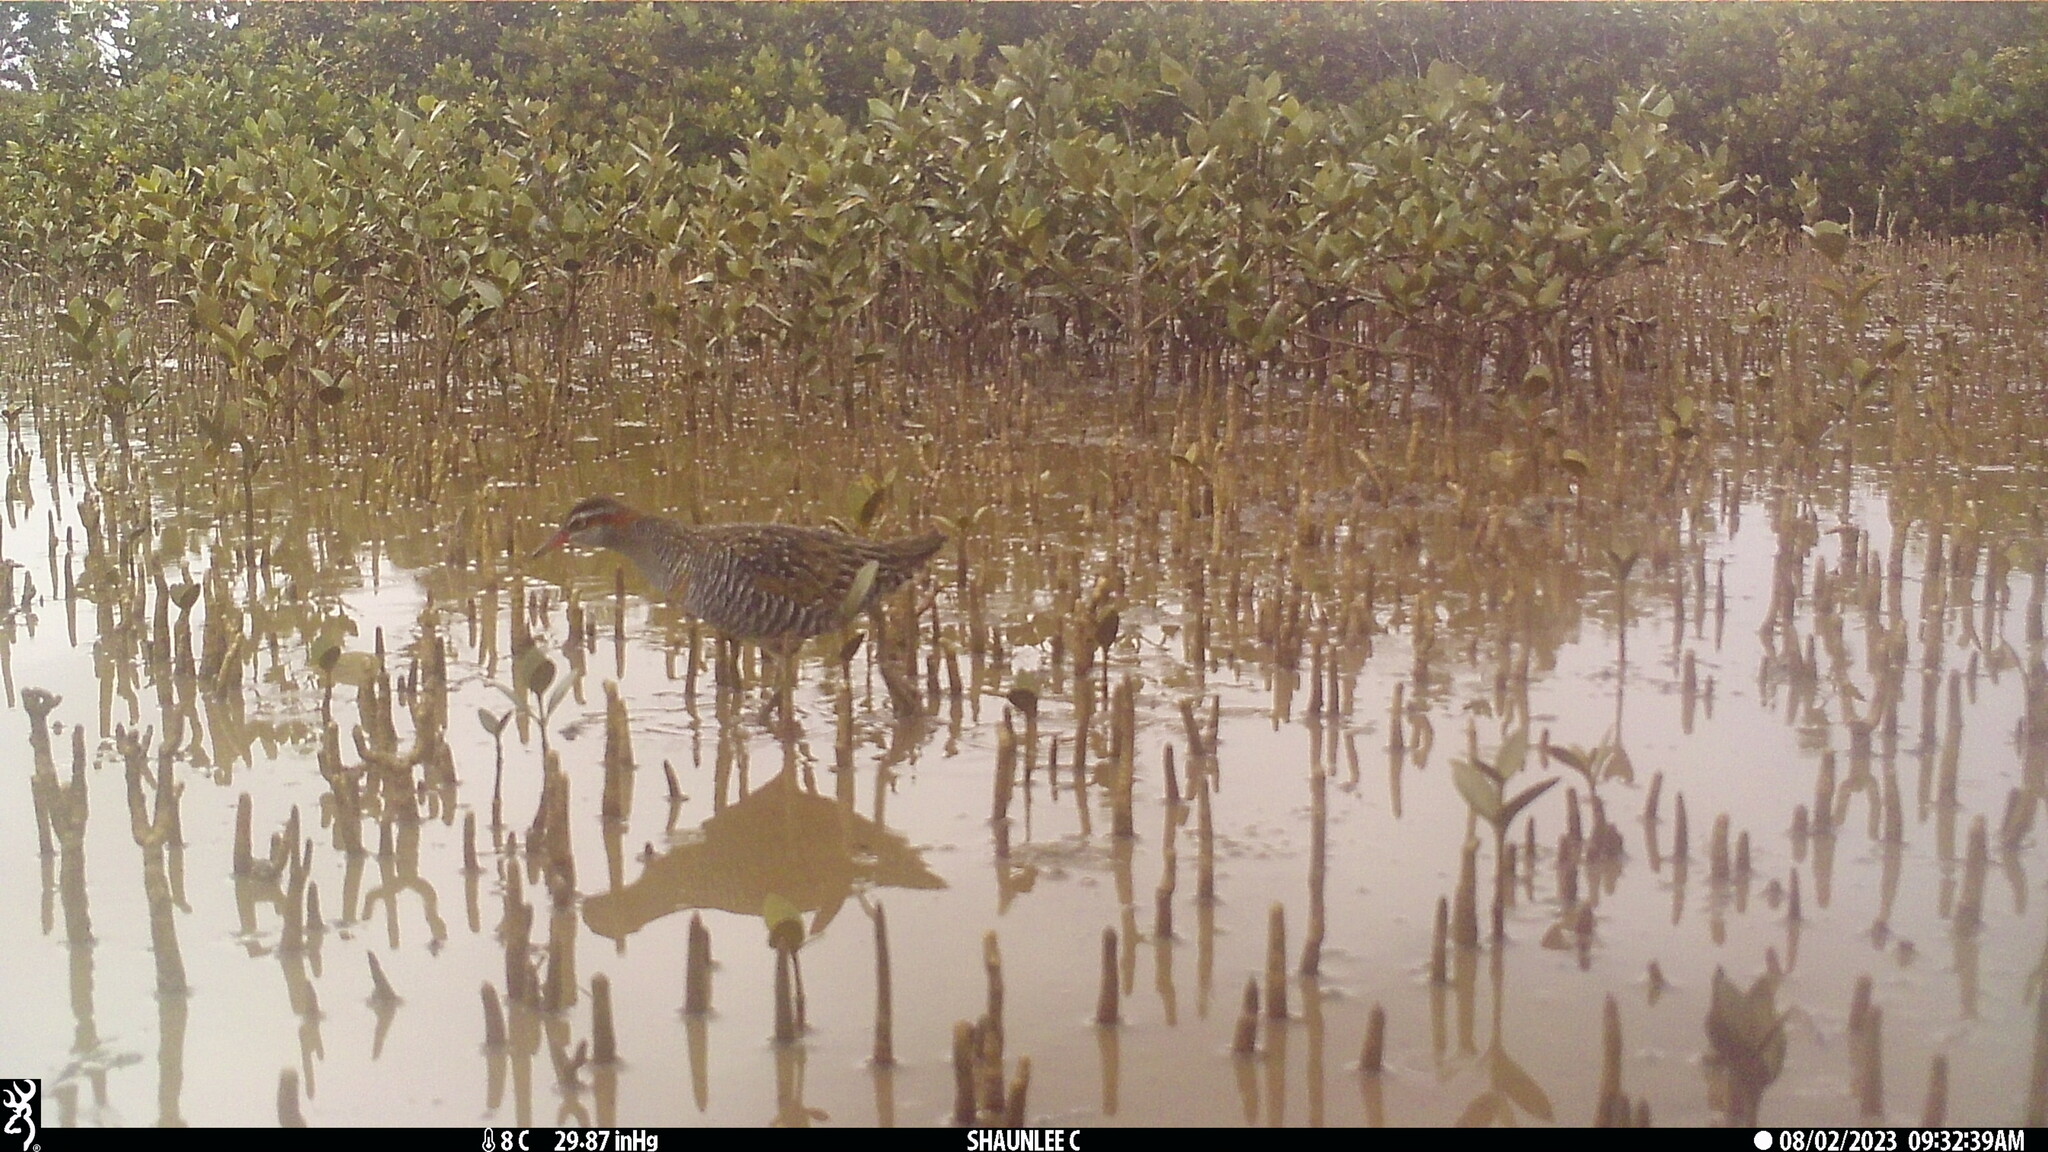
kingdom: Animalia
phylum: Chordata
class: Aves
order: Gruiformes
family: Rallidae
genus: Gallirallus
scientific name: Gallirallus philippensis
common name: Buff-banded rail
